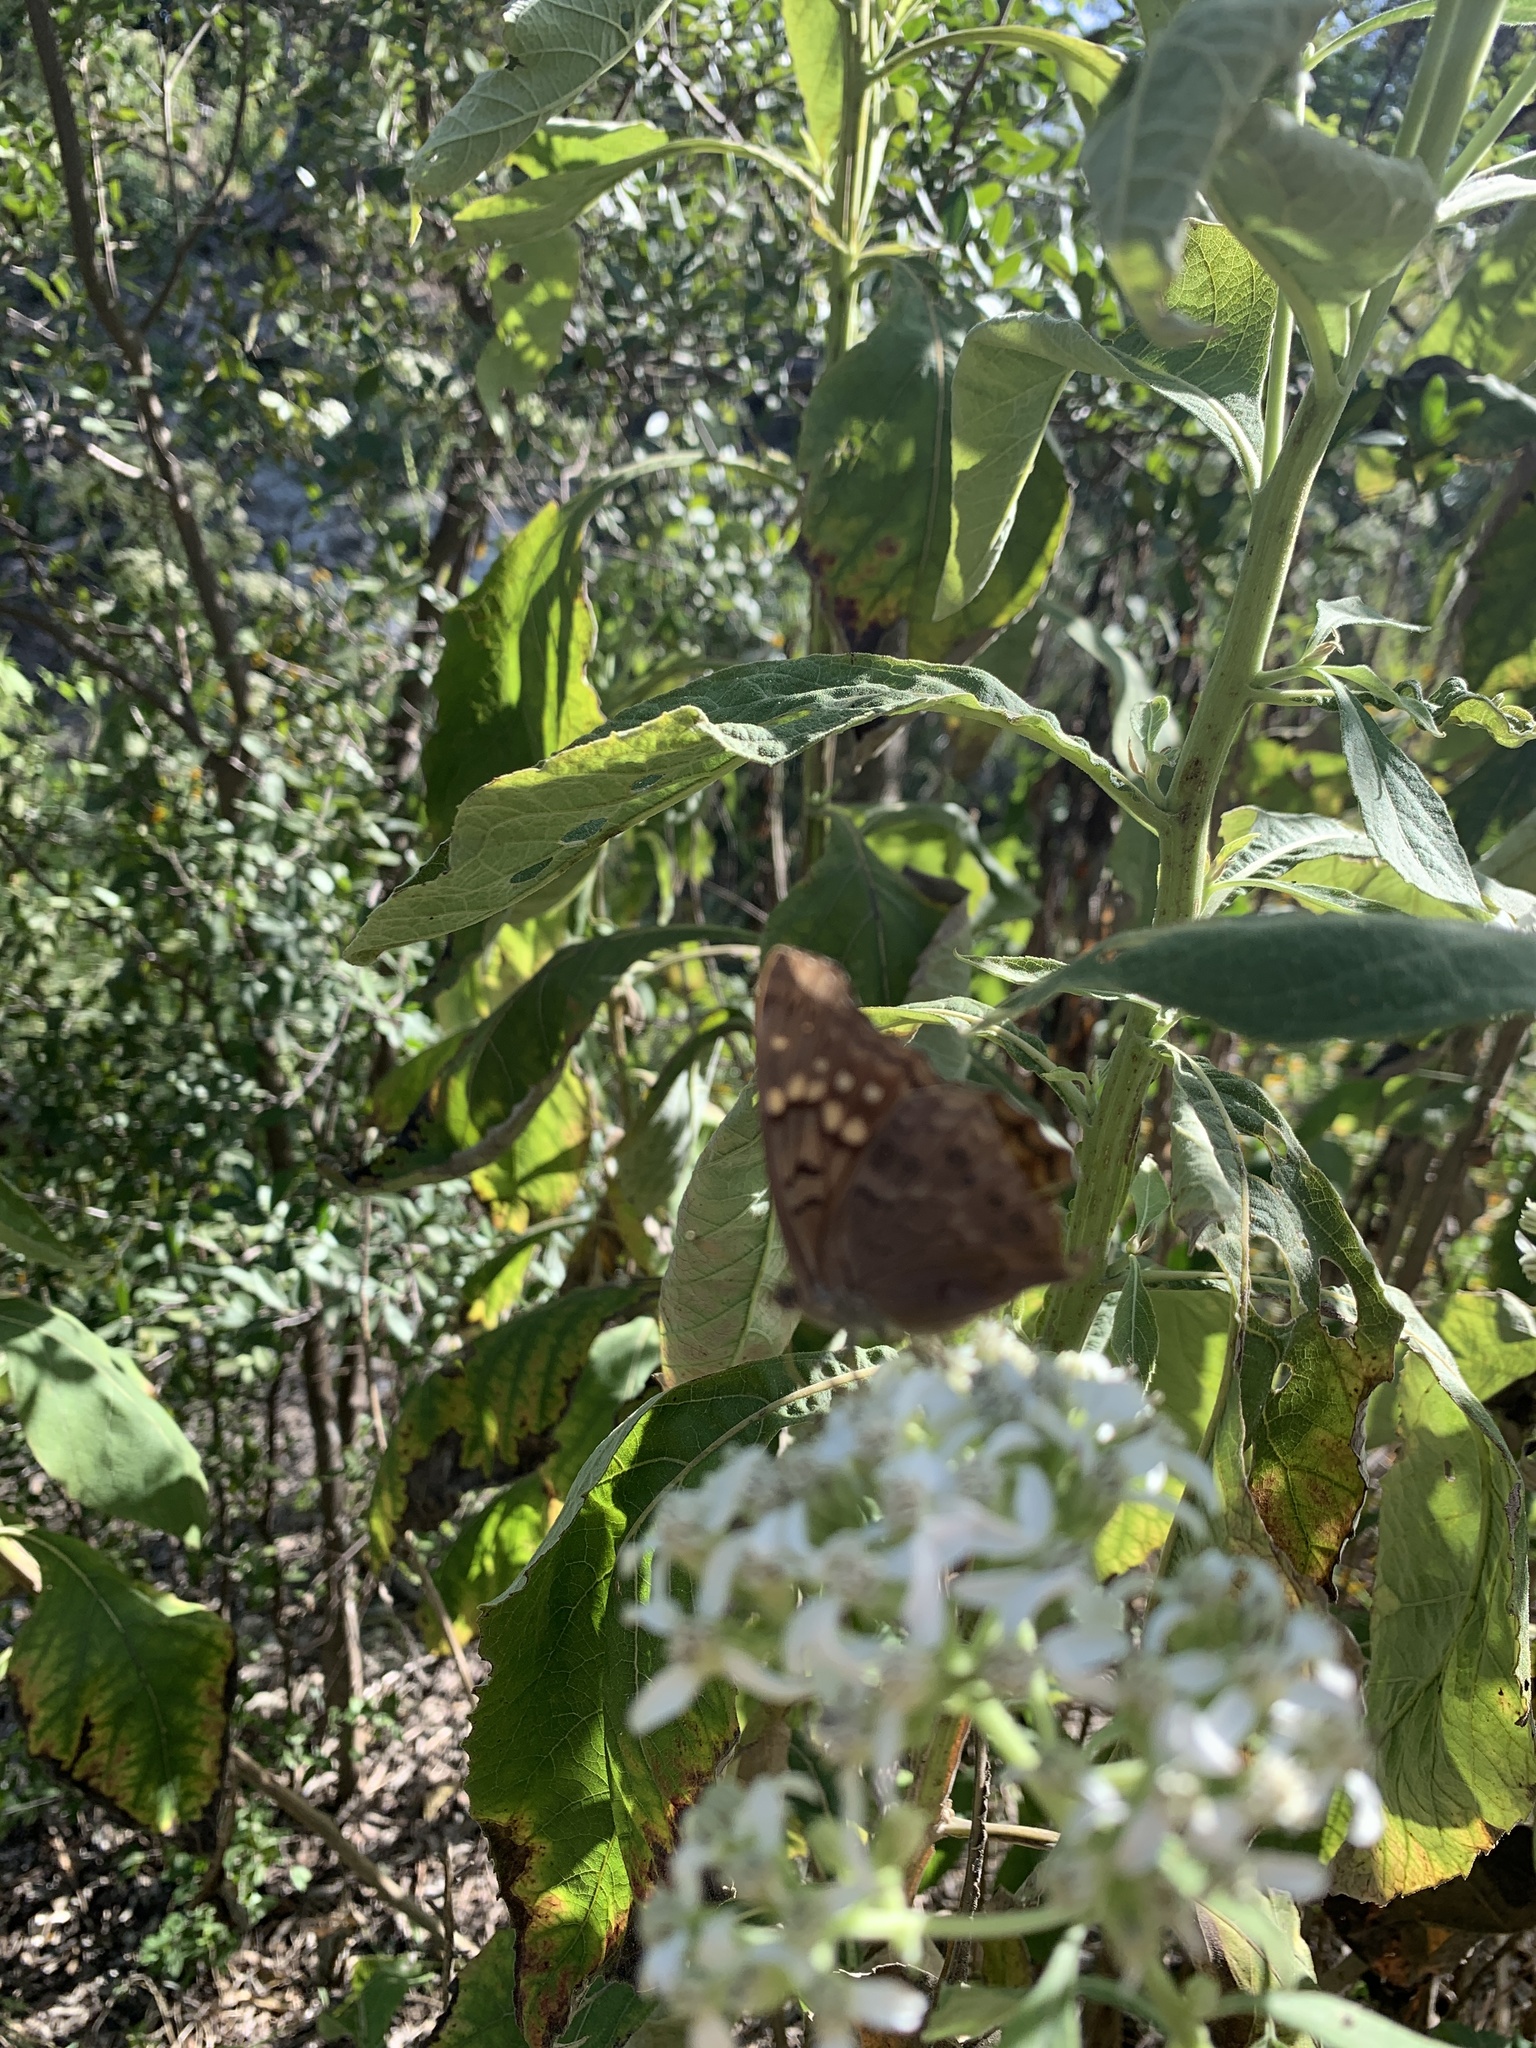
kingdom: Animalia
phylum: Arthropoda
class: Insecta
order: Lepidoptera
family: Nymphalidae
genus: Asterocampa
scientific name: Asterocampa clyton
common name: Tawny emperor
